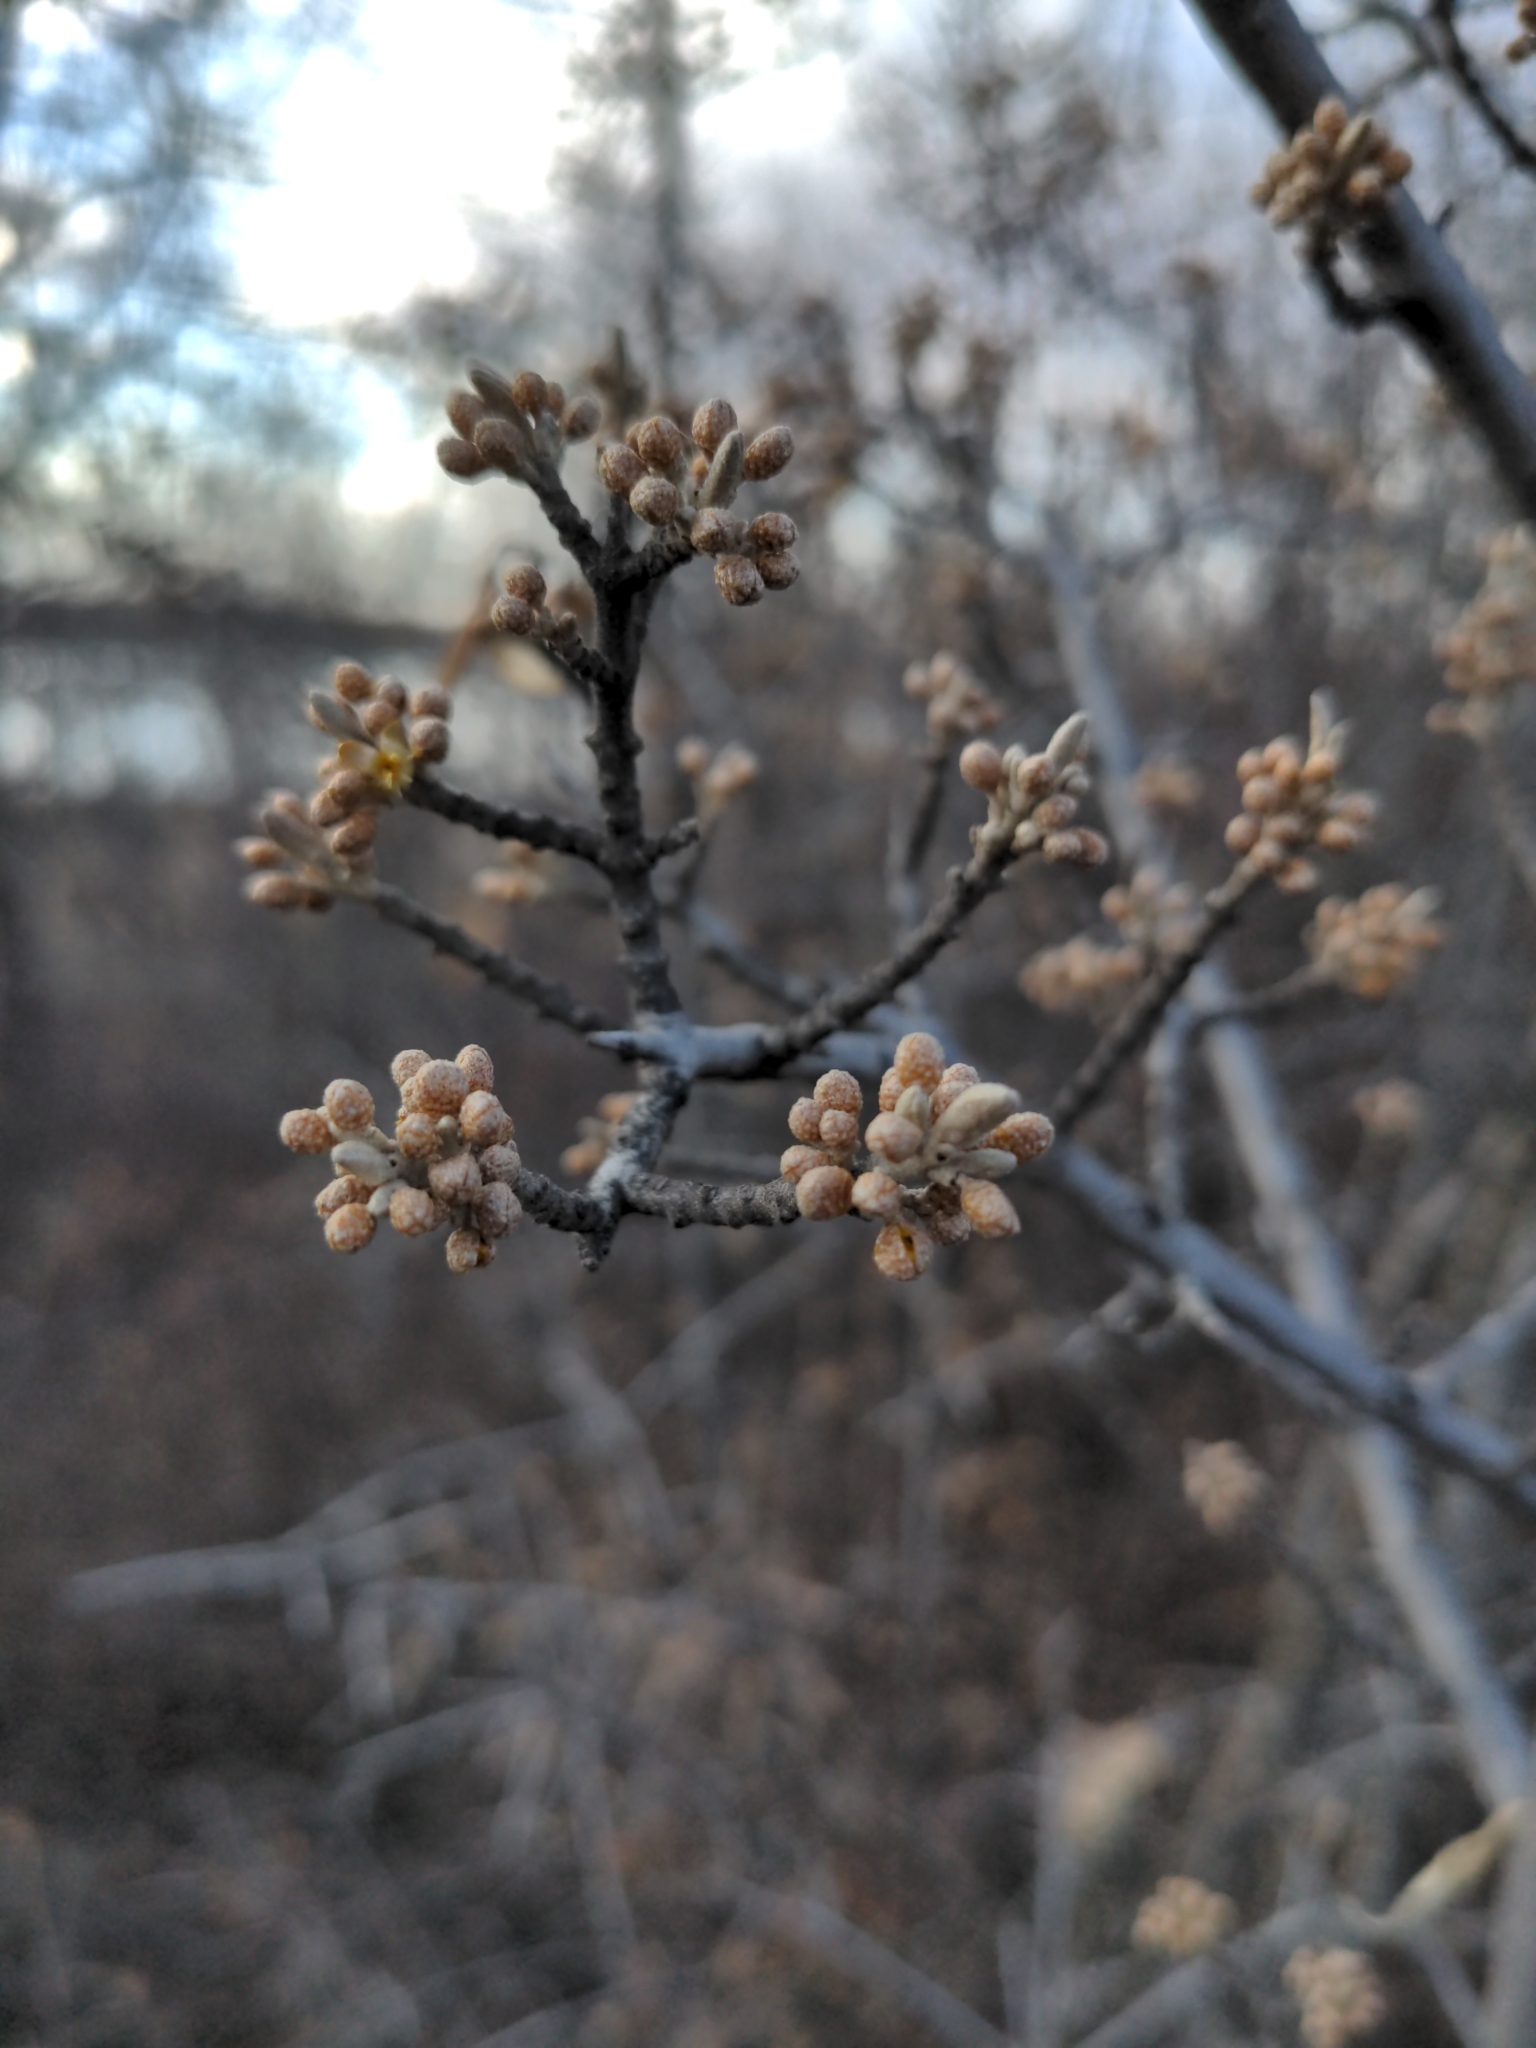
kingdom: Plantae
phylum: Tracheophyta
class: Magnoliopsida
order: Rosales
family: Elaeagnaceae
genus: Shepherdia
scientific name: Shepherdia argentea
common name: Silver buffaloberry
